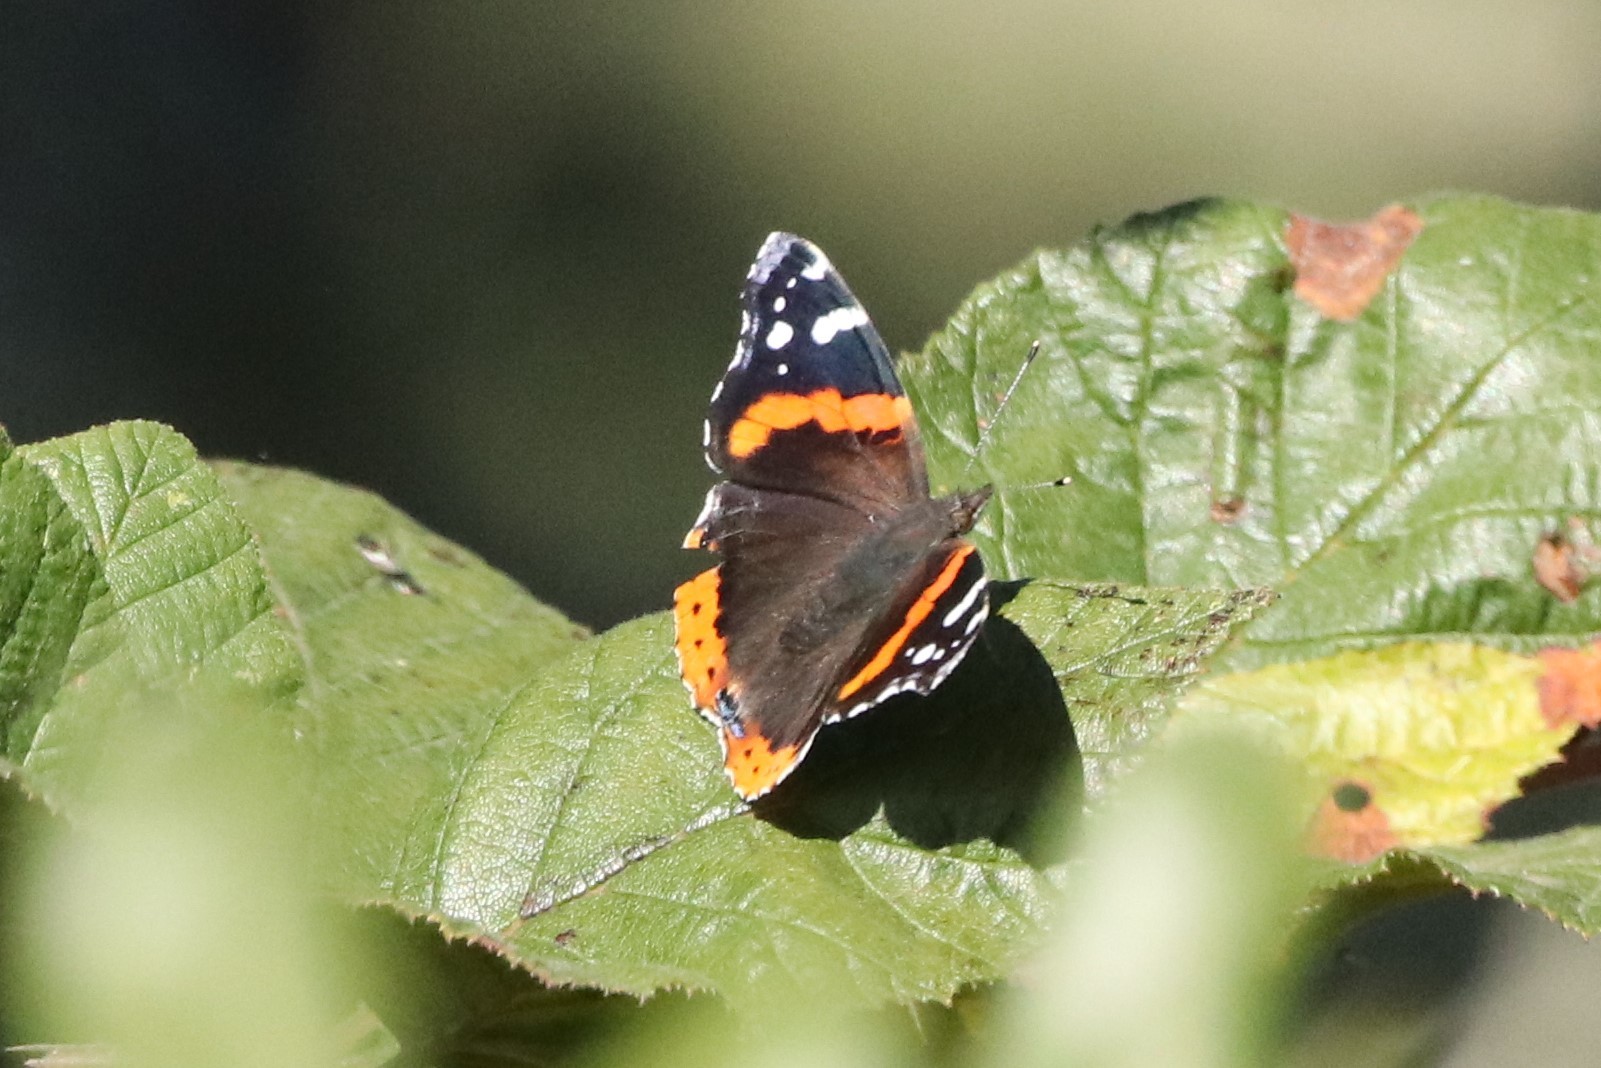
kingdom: Animalia
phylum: Arthropoda
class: Insecta
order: Lepidoptera
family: Nymphalidae
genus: Vanessa
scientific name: Vanessa atalanta
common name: Red admiral
